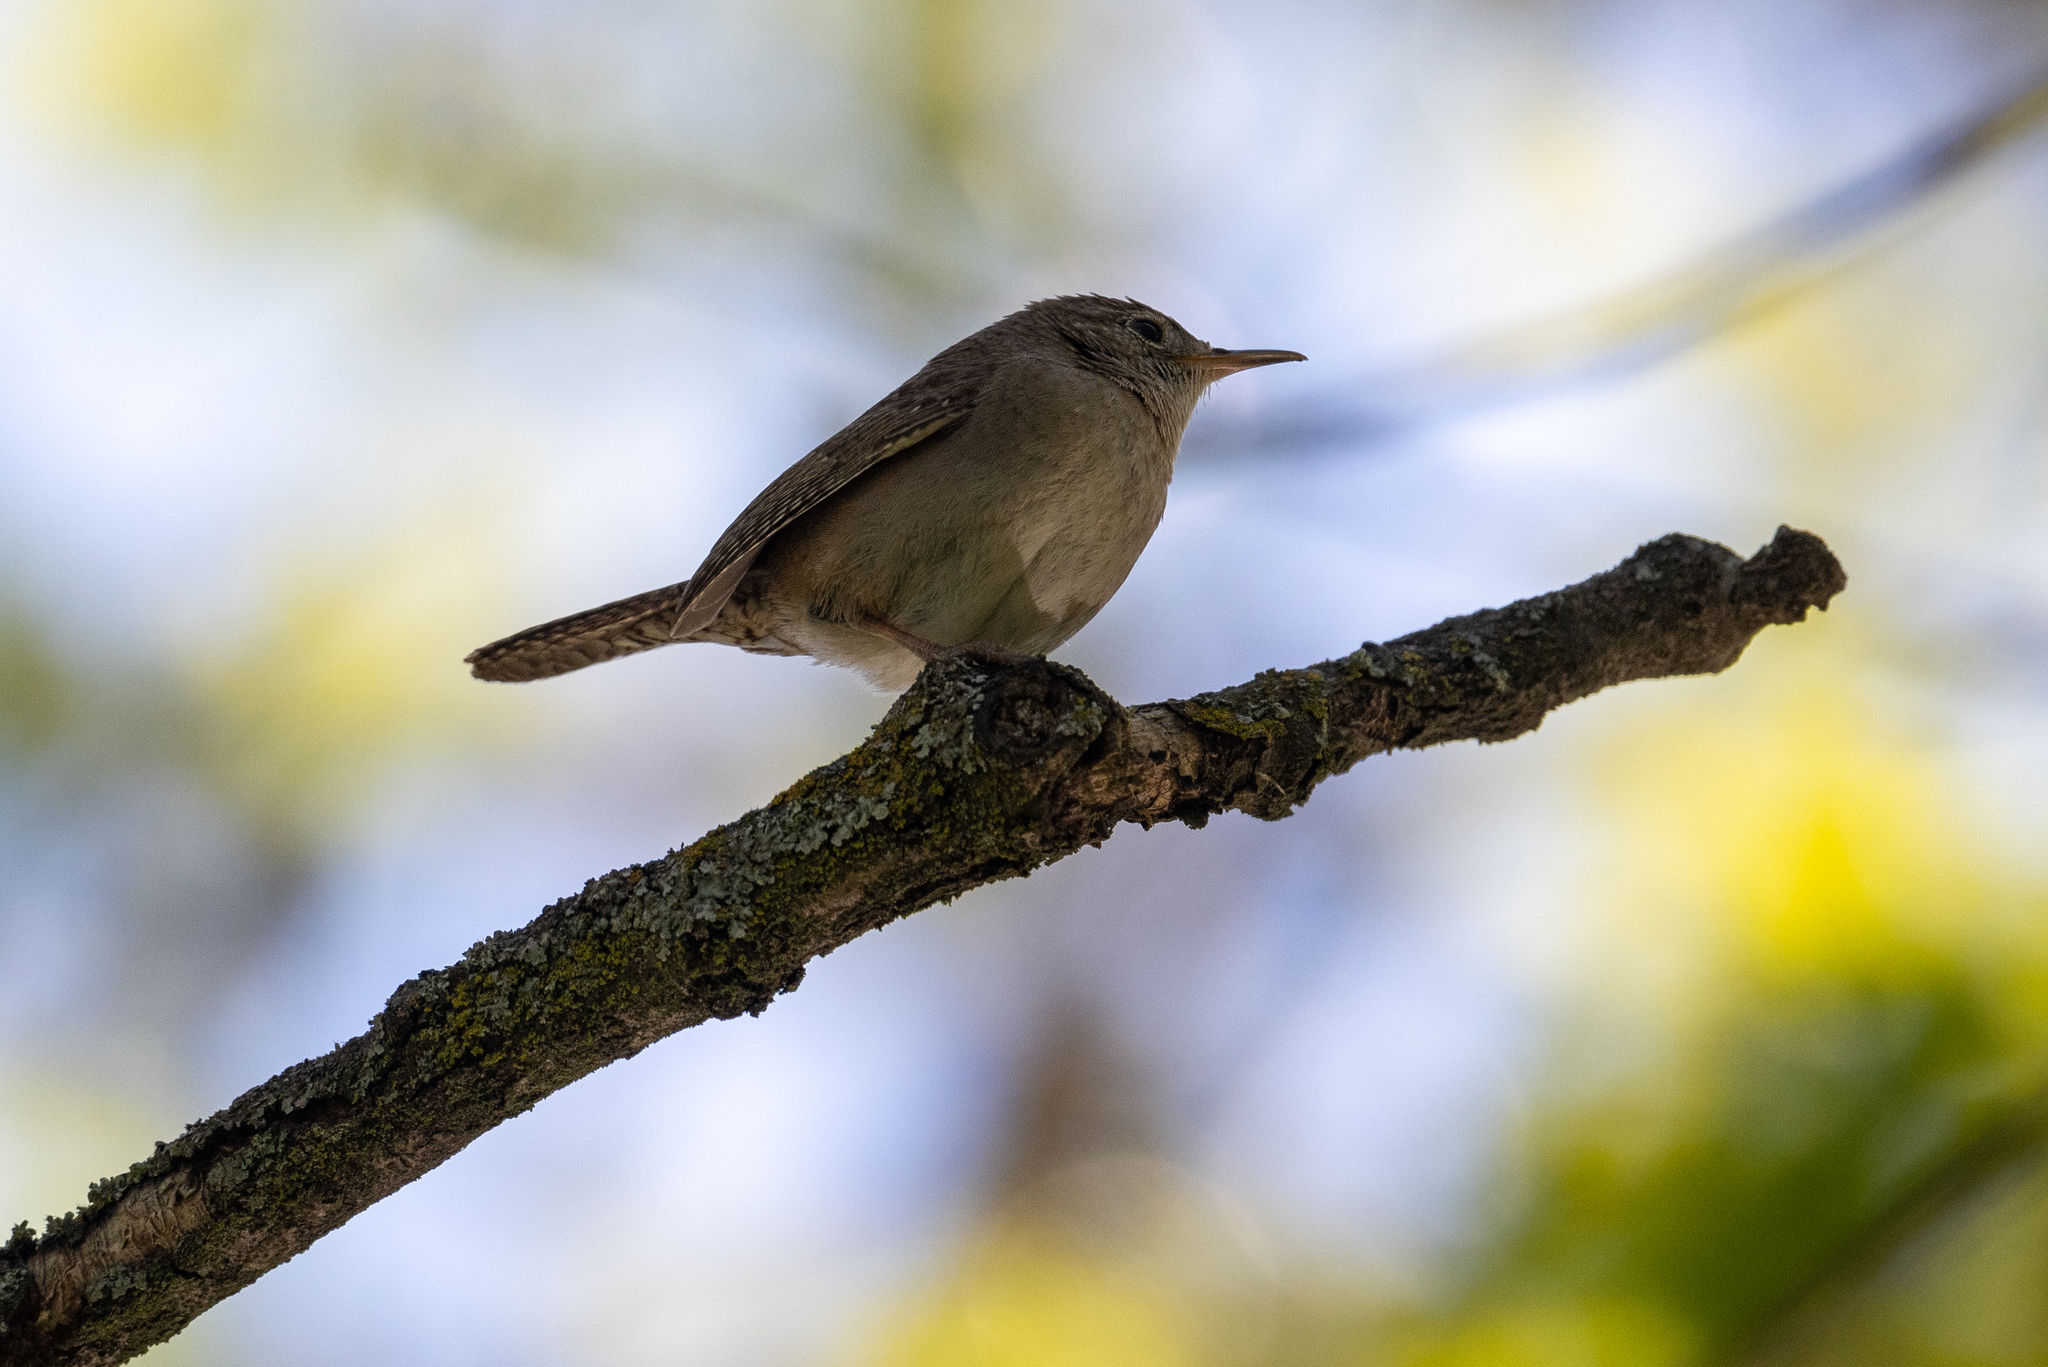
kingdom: Animalia
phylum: Chordata
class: Aves
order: Passeriformes
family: Troglodytidae
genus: Troglodytes
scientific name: Troglodytes aedon
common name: House wren
